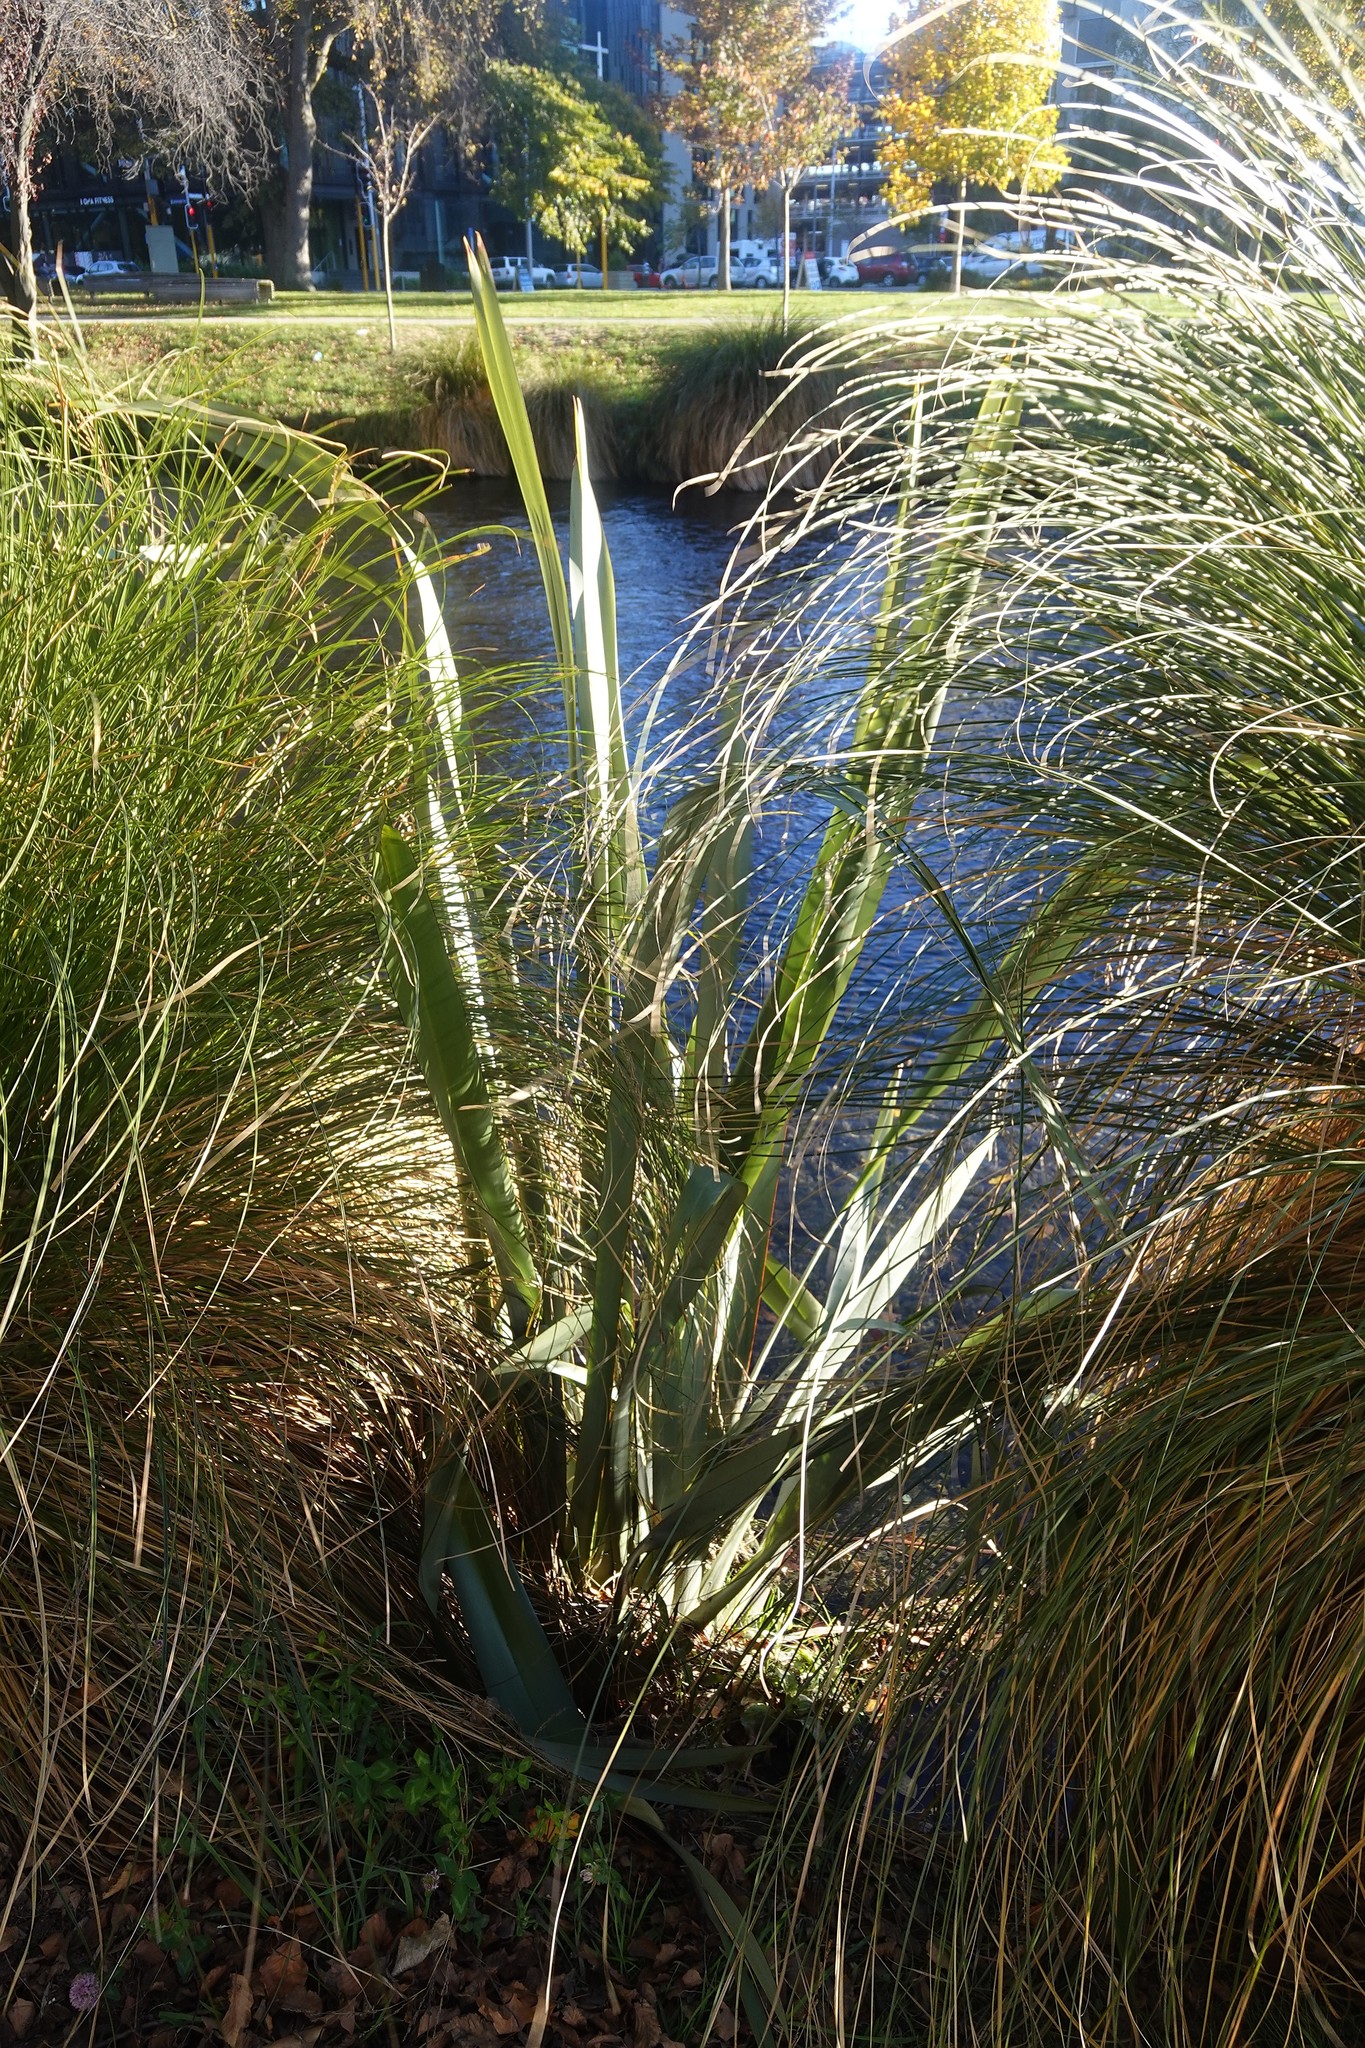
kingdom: Plantae
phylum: Tracheophyta
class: Liliopsida
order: Asparagales
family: Asphodelaceae
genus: Phormium
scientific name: Phormium tenax
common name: New zealand flax
